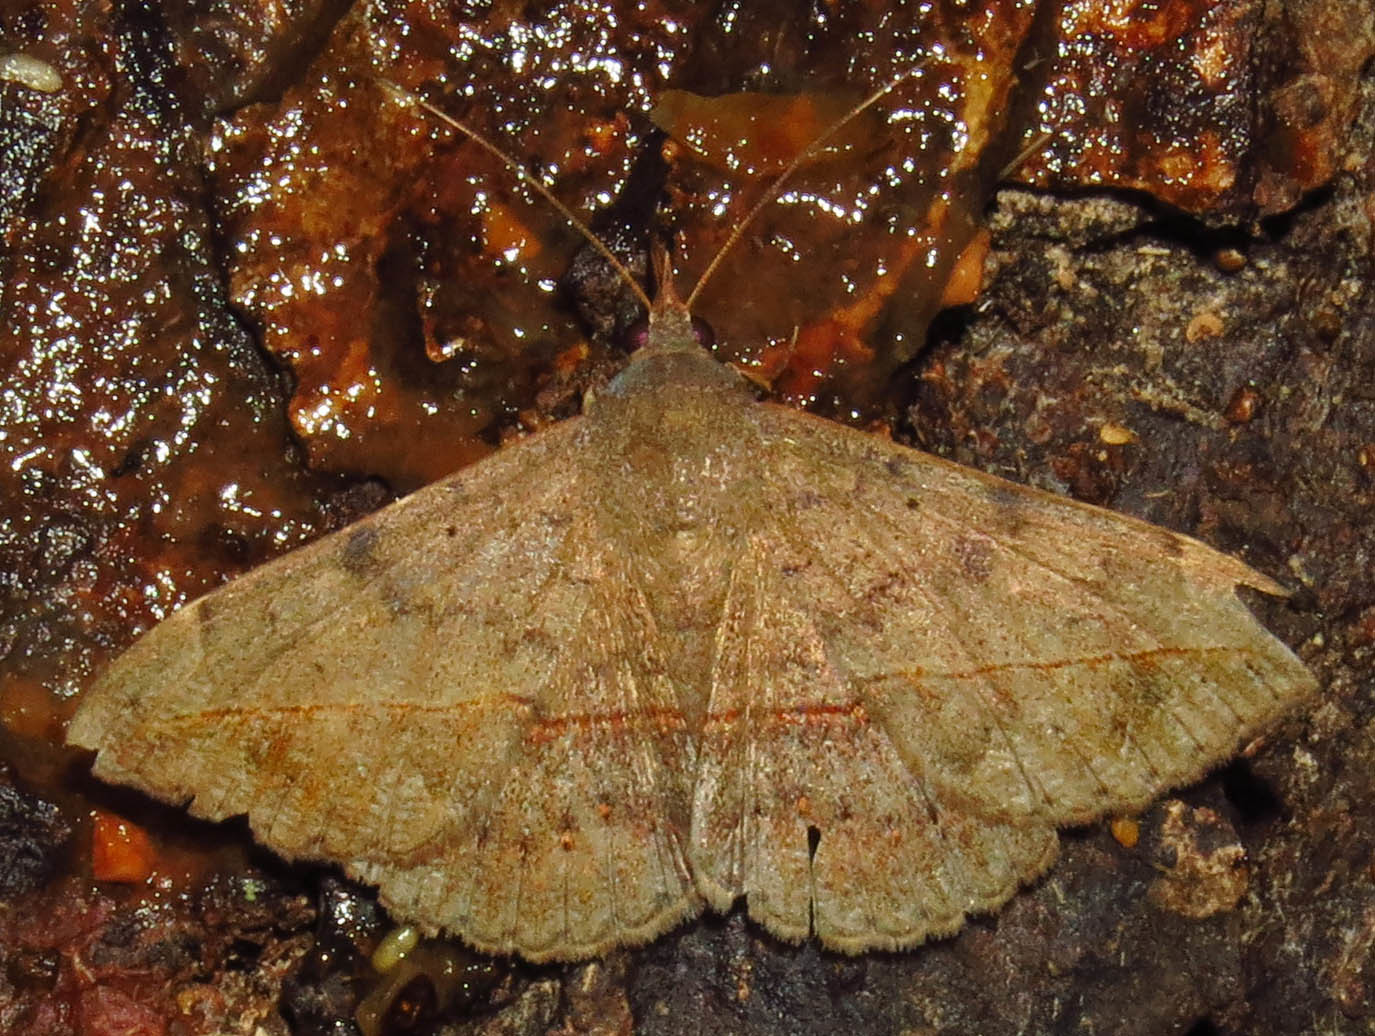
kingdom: Animalia
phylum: Arthropoda
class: Insecta
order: Lepidoptera
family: Erebidae
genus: Anticarsia
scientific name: Anticarsia gemmatalis
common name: Cutworm moth
